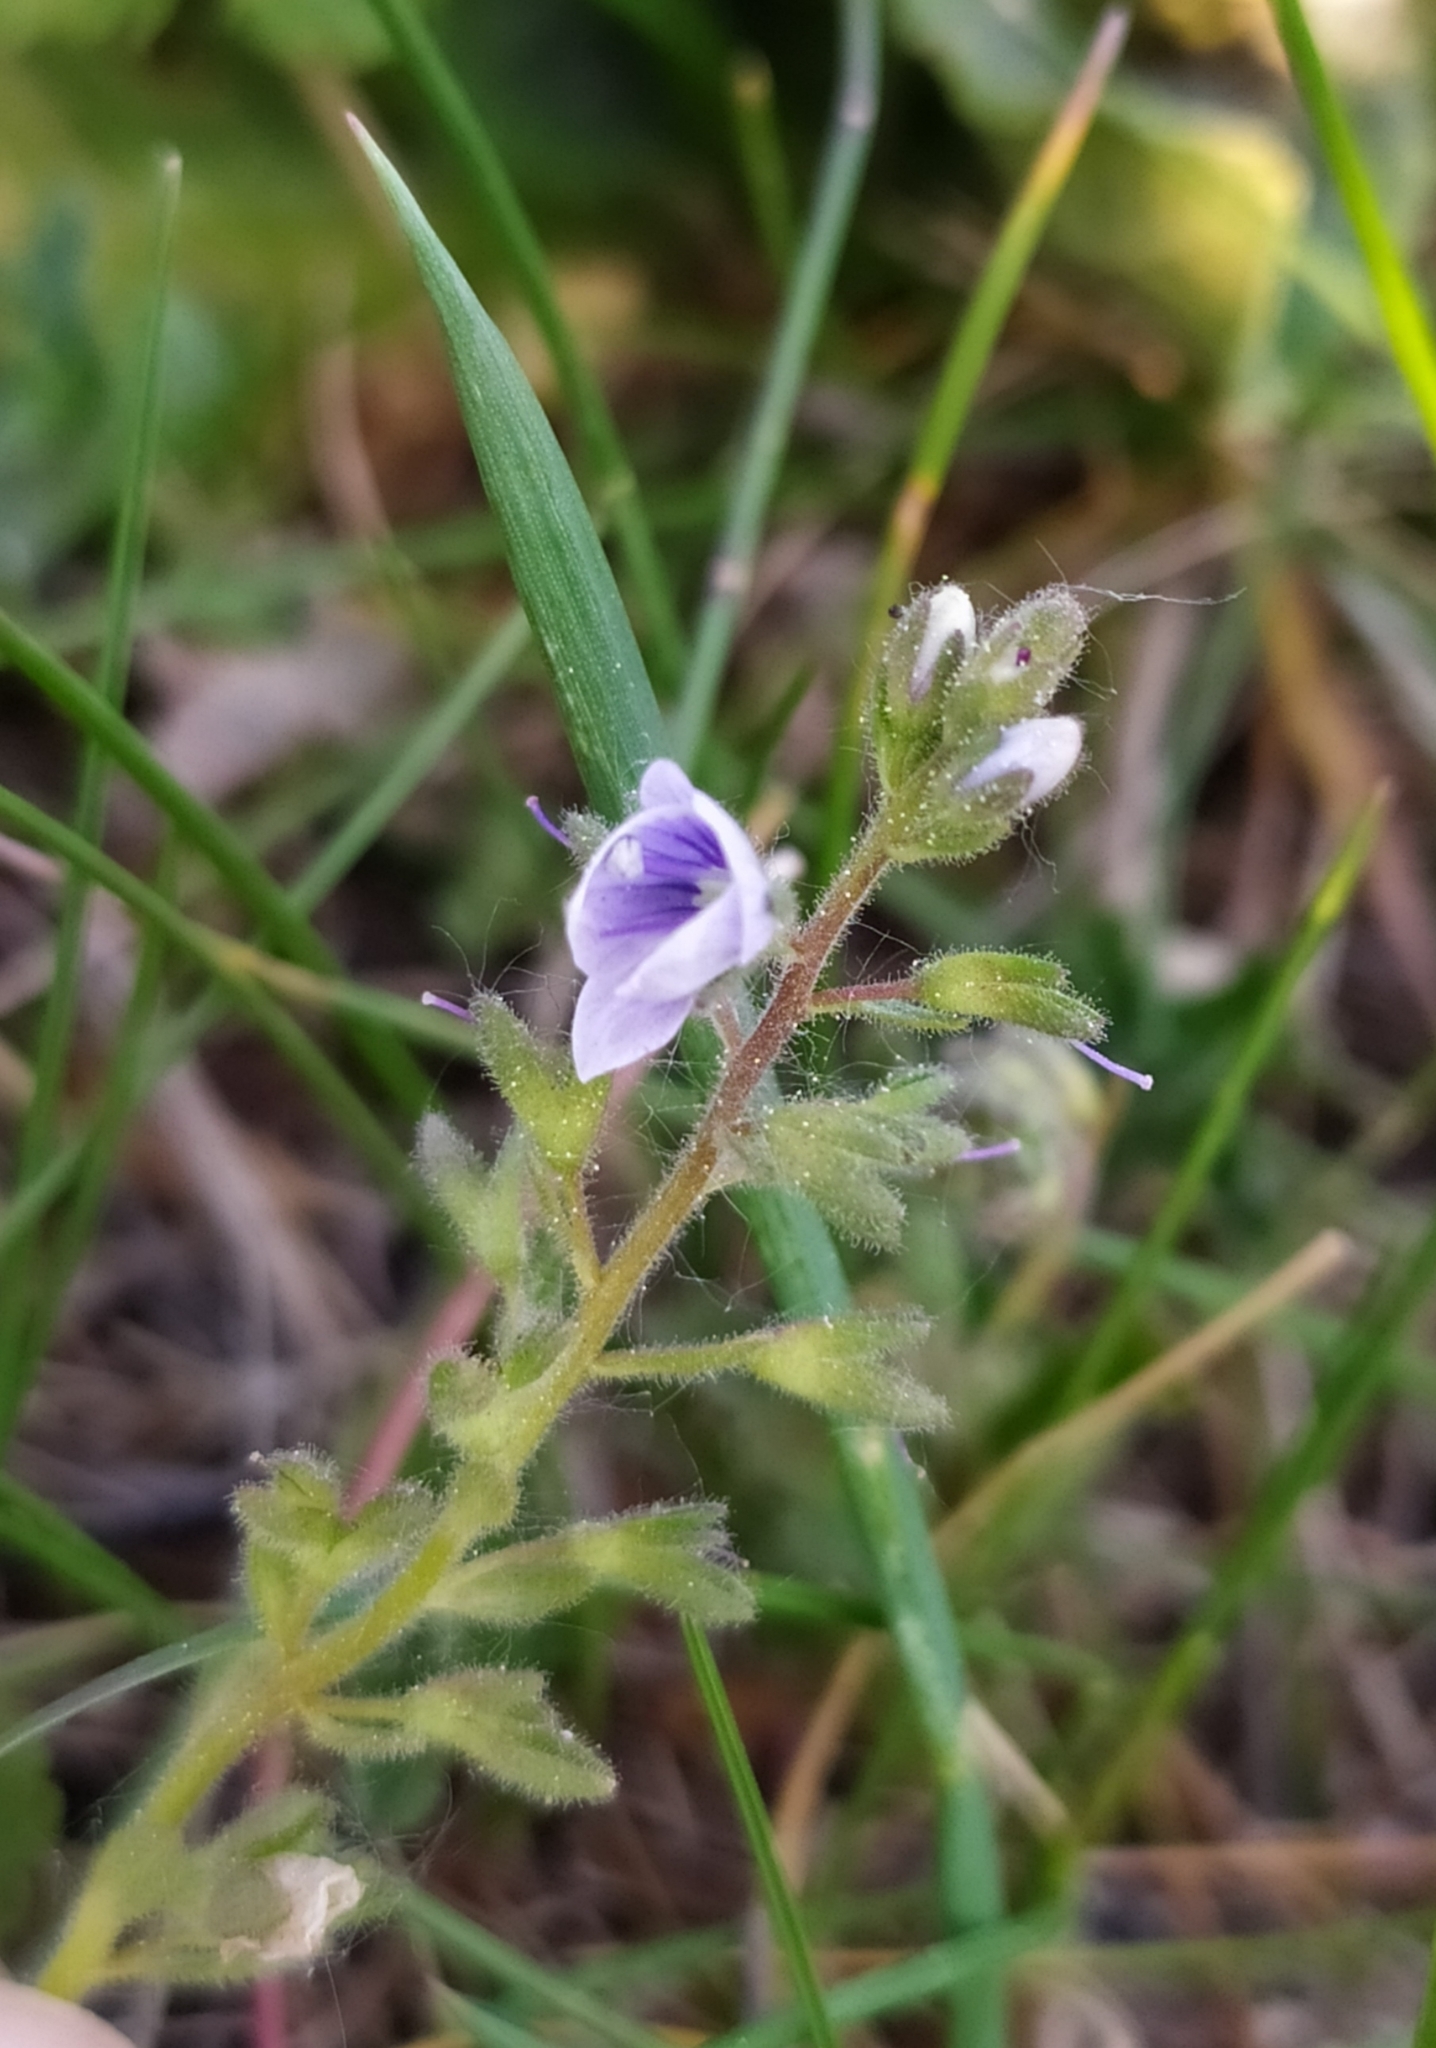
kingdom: Plantae
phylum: Tracheophyta
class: Magnoliopsida
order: Lamiales
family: Plantaginaceae
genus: Veronica
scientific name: Veronica vindobonensis
